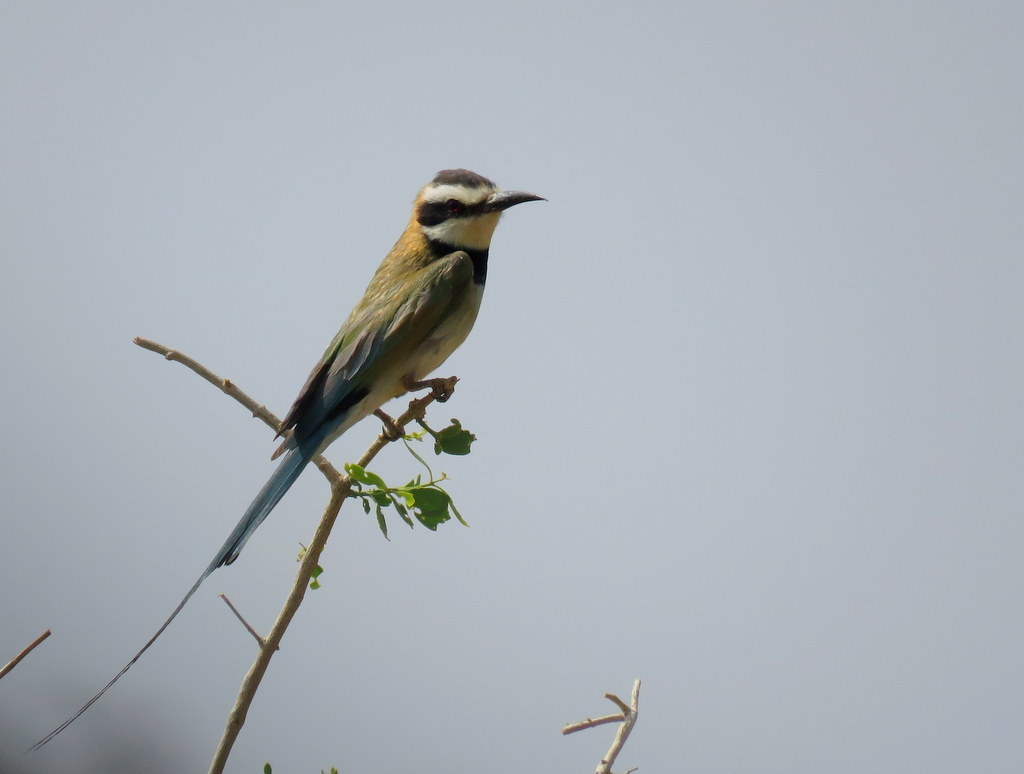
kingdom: Animalia
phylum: Chordata
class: Aves
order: Coraciiformes
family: Meropidae
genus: Merops
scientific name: Merops albicollis
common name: White-throated bee-eater
